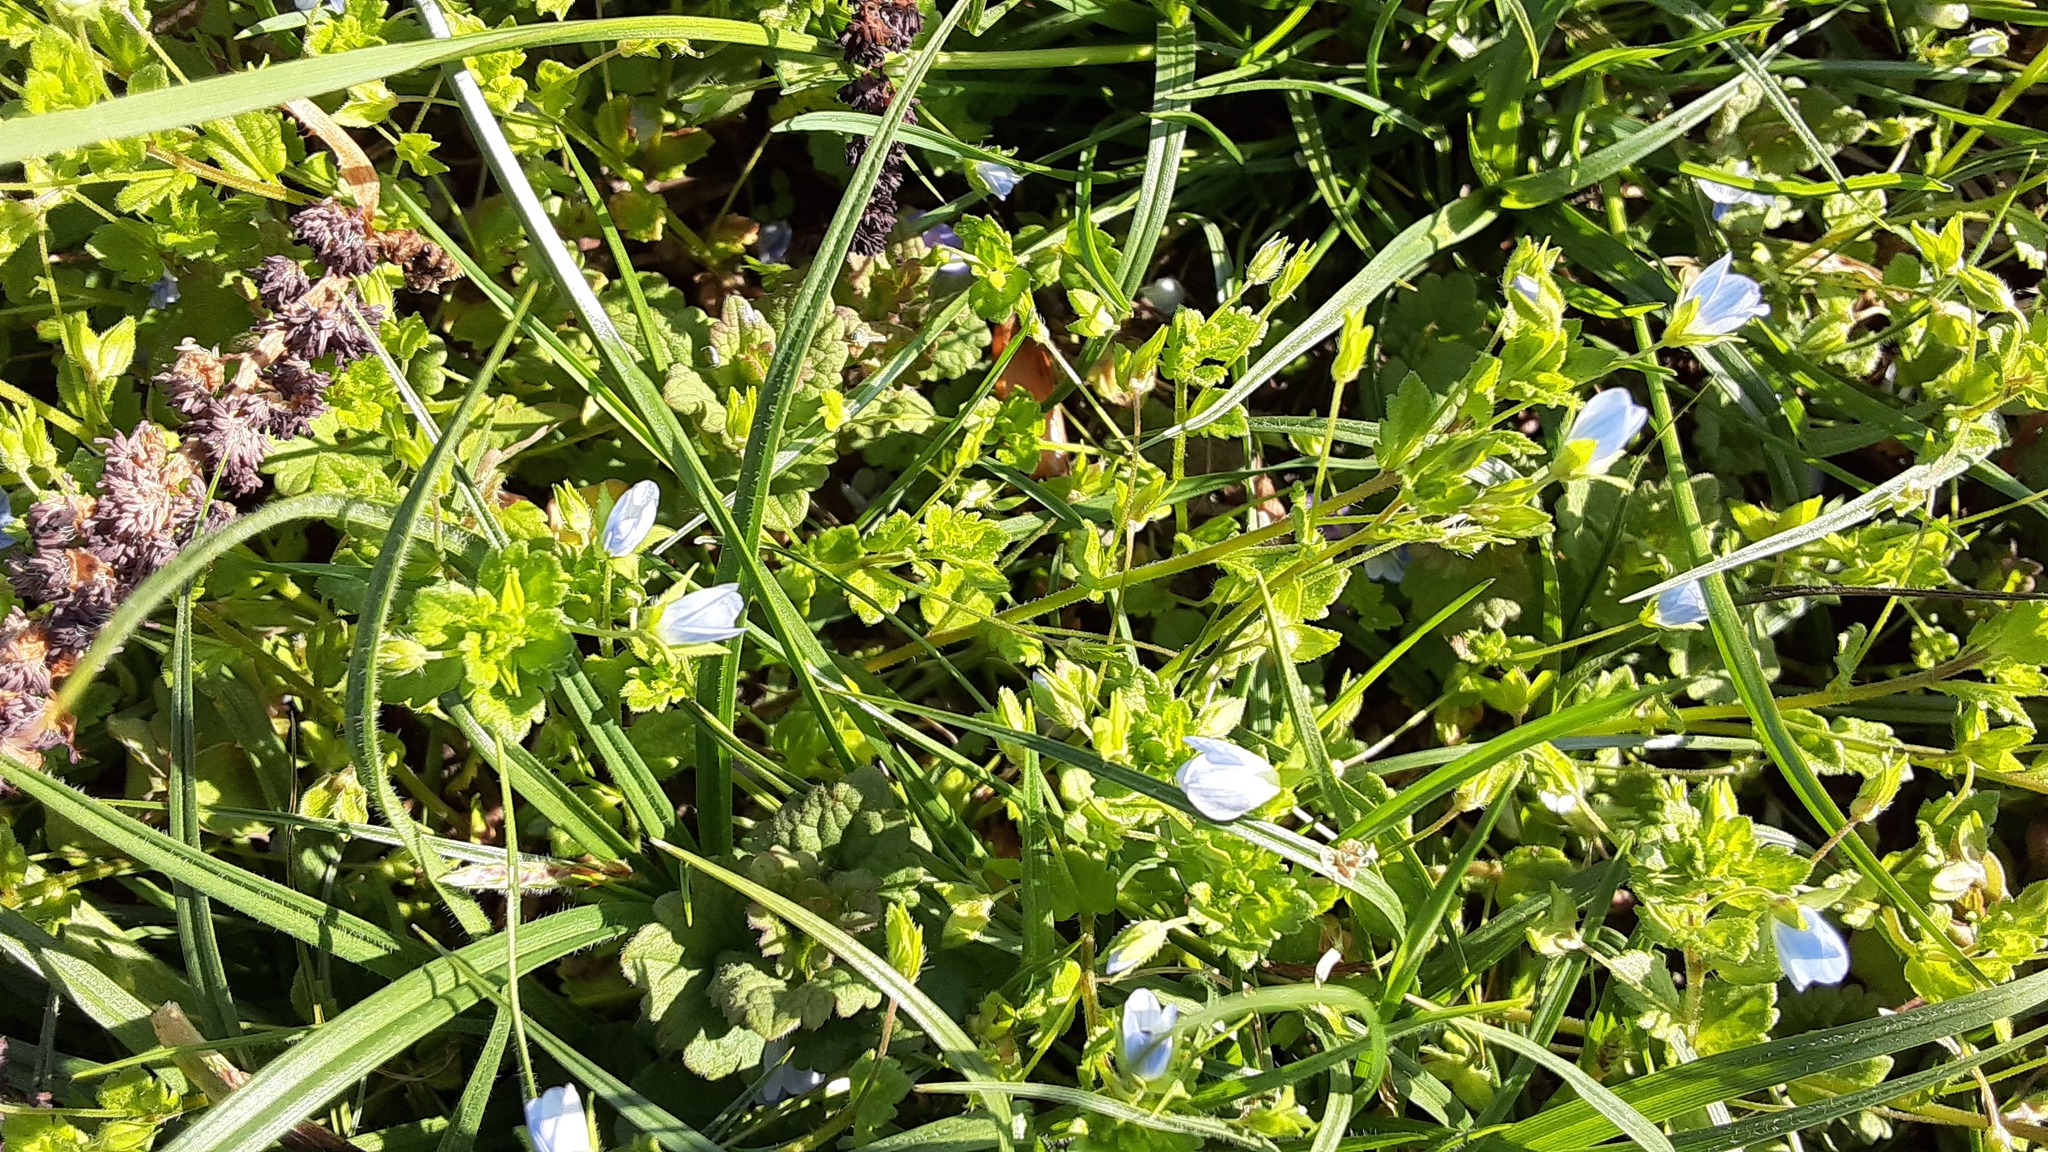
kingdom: Plantae
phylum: Tracheophyta
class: Magnoliopsida
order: Lamiales
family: Plantaginaceae
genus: Veronica
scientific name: Veronica persica
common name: Common field-speedwell
